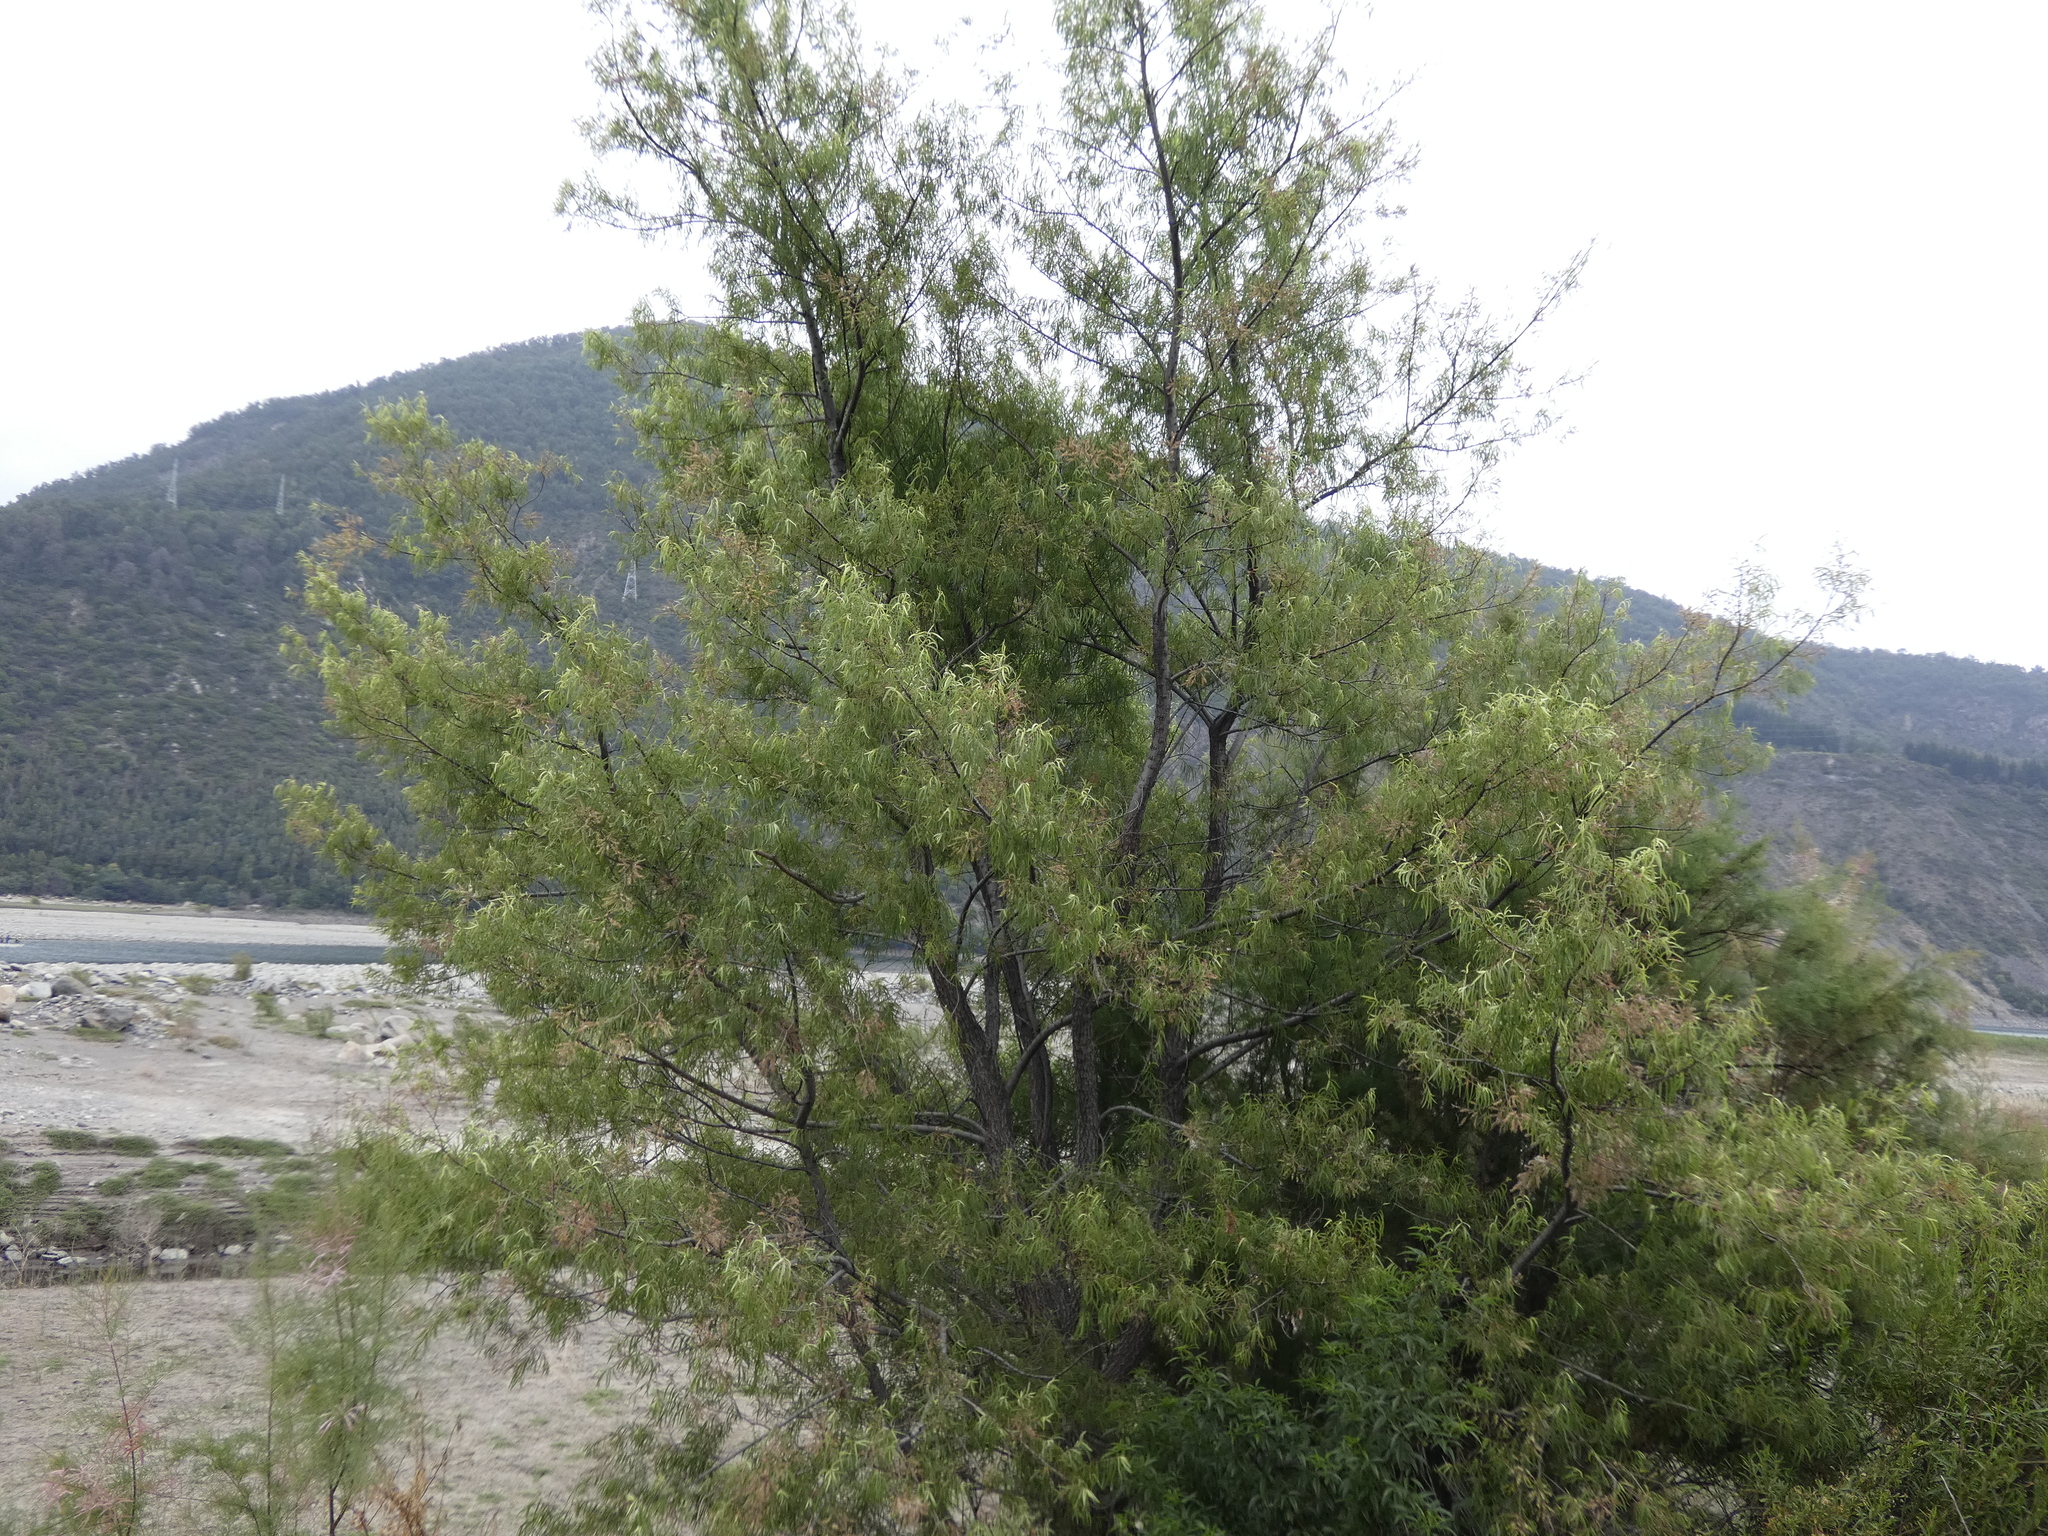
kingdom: Plantae
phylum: Tracheophyta
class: Magnoliopsida
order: Malpighiales
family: Salicaceae
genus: Salix
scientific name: Salix humboldtiana
